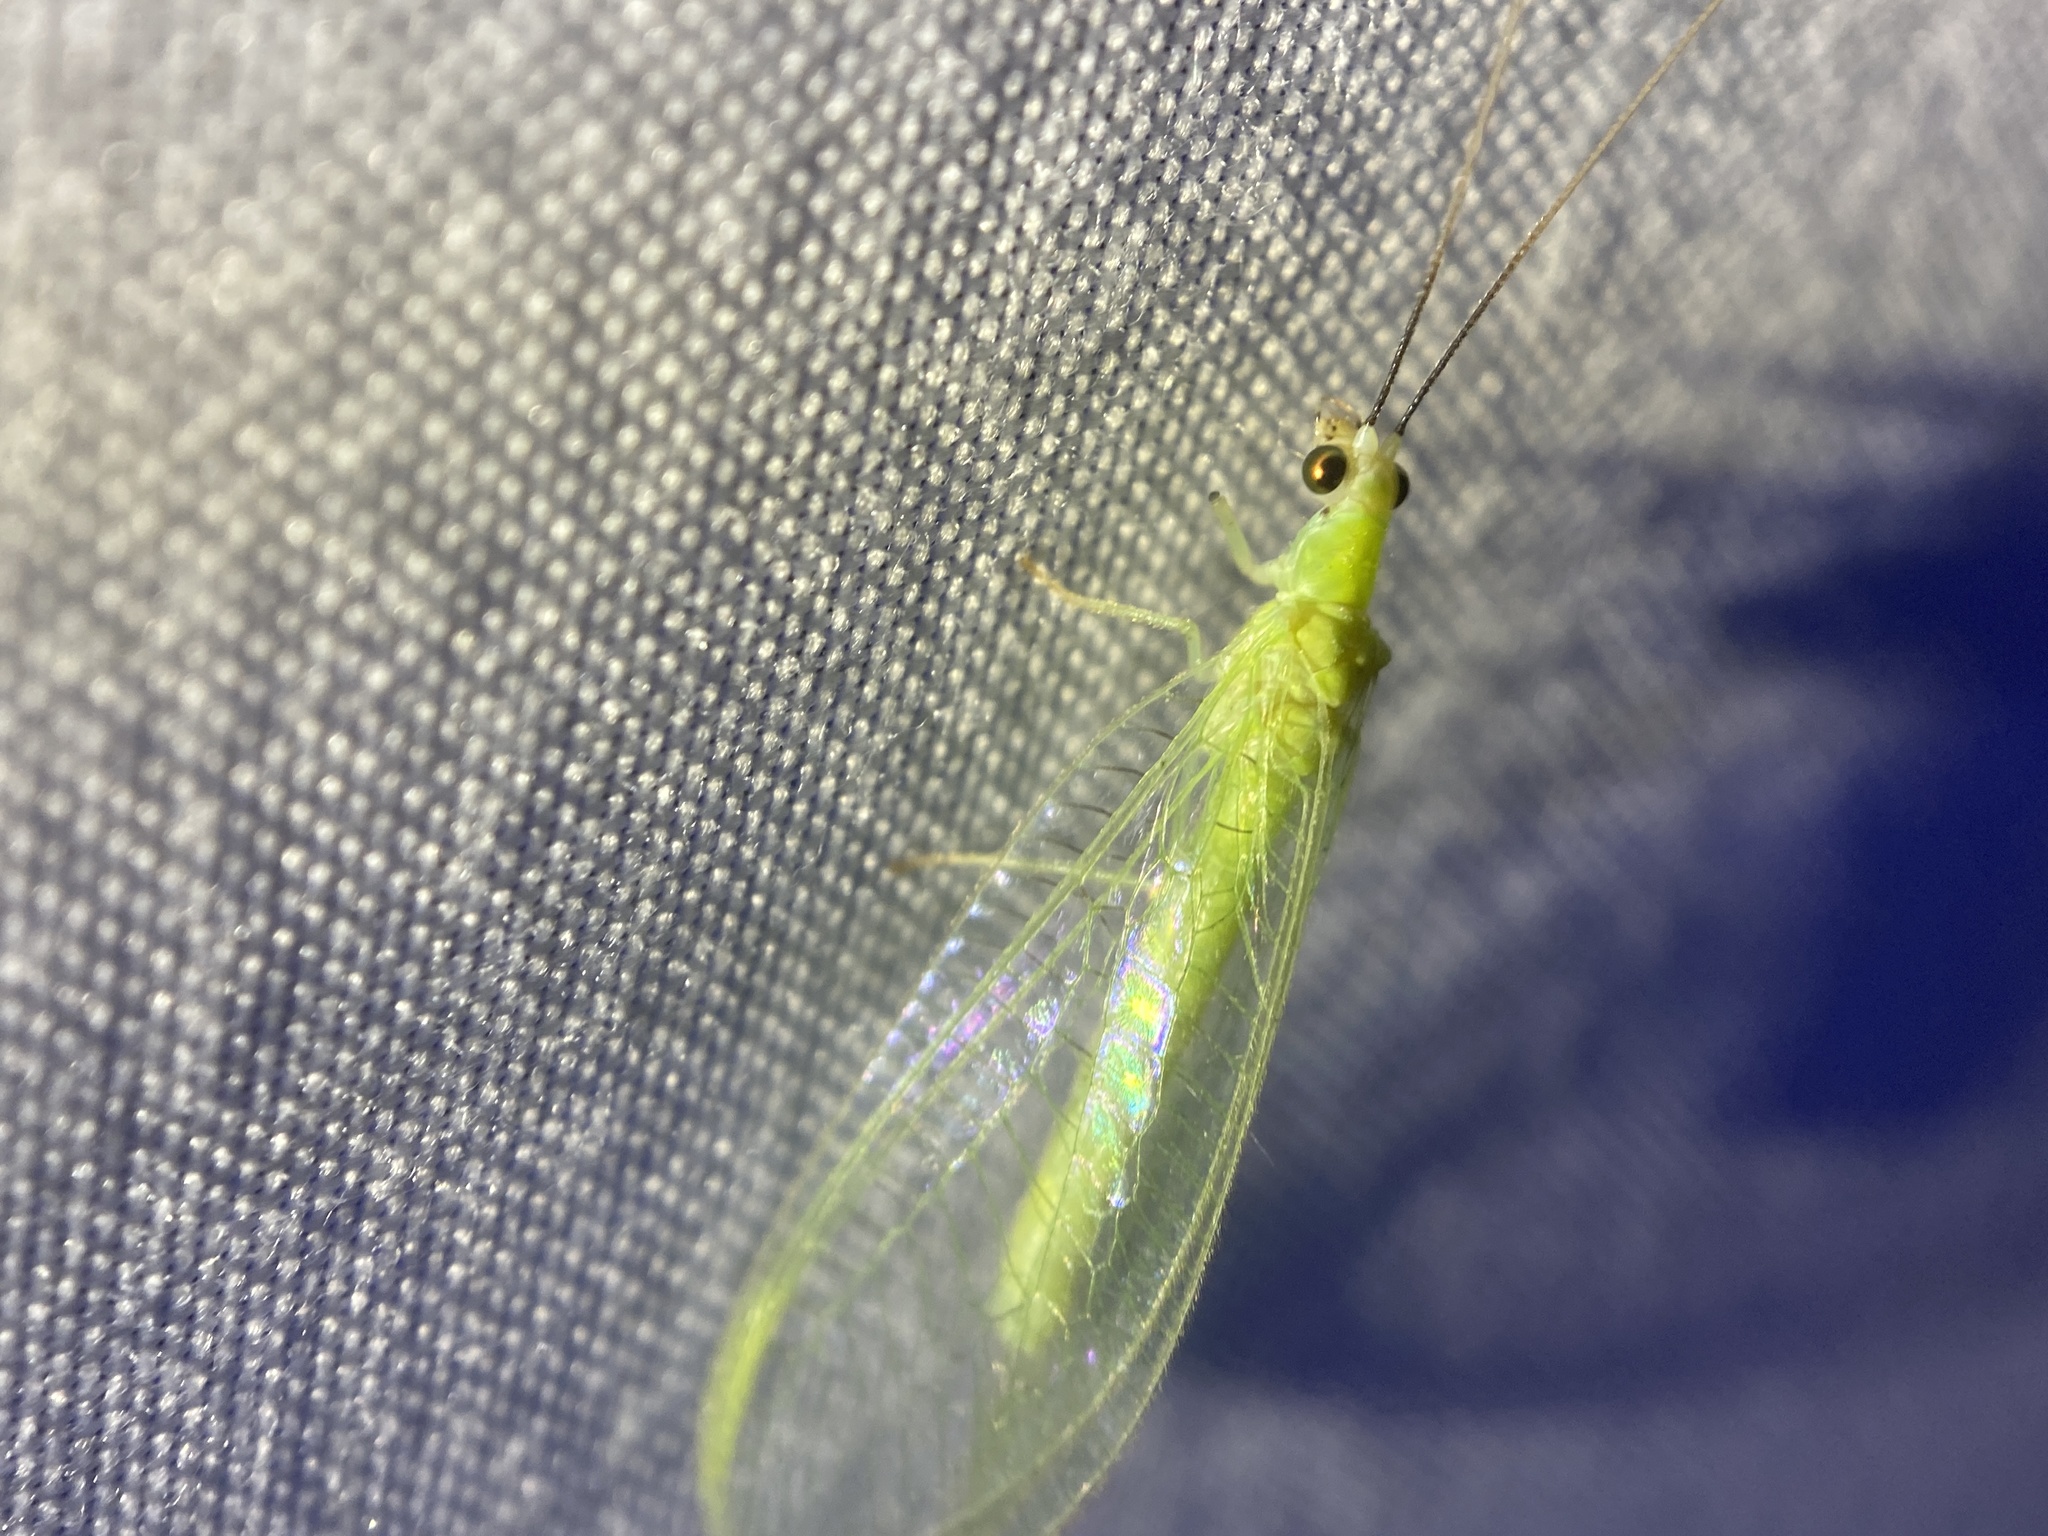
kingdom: Animalia
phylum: Arthropoda
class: Insecta
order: Neuroptera
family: Chrysopidae
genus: Chrysopa
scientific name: Chrysopa nigricornis
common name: Black-horned green lacewing
